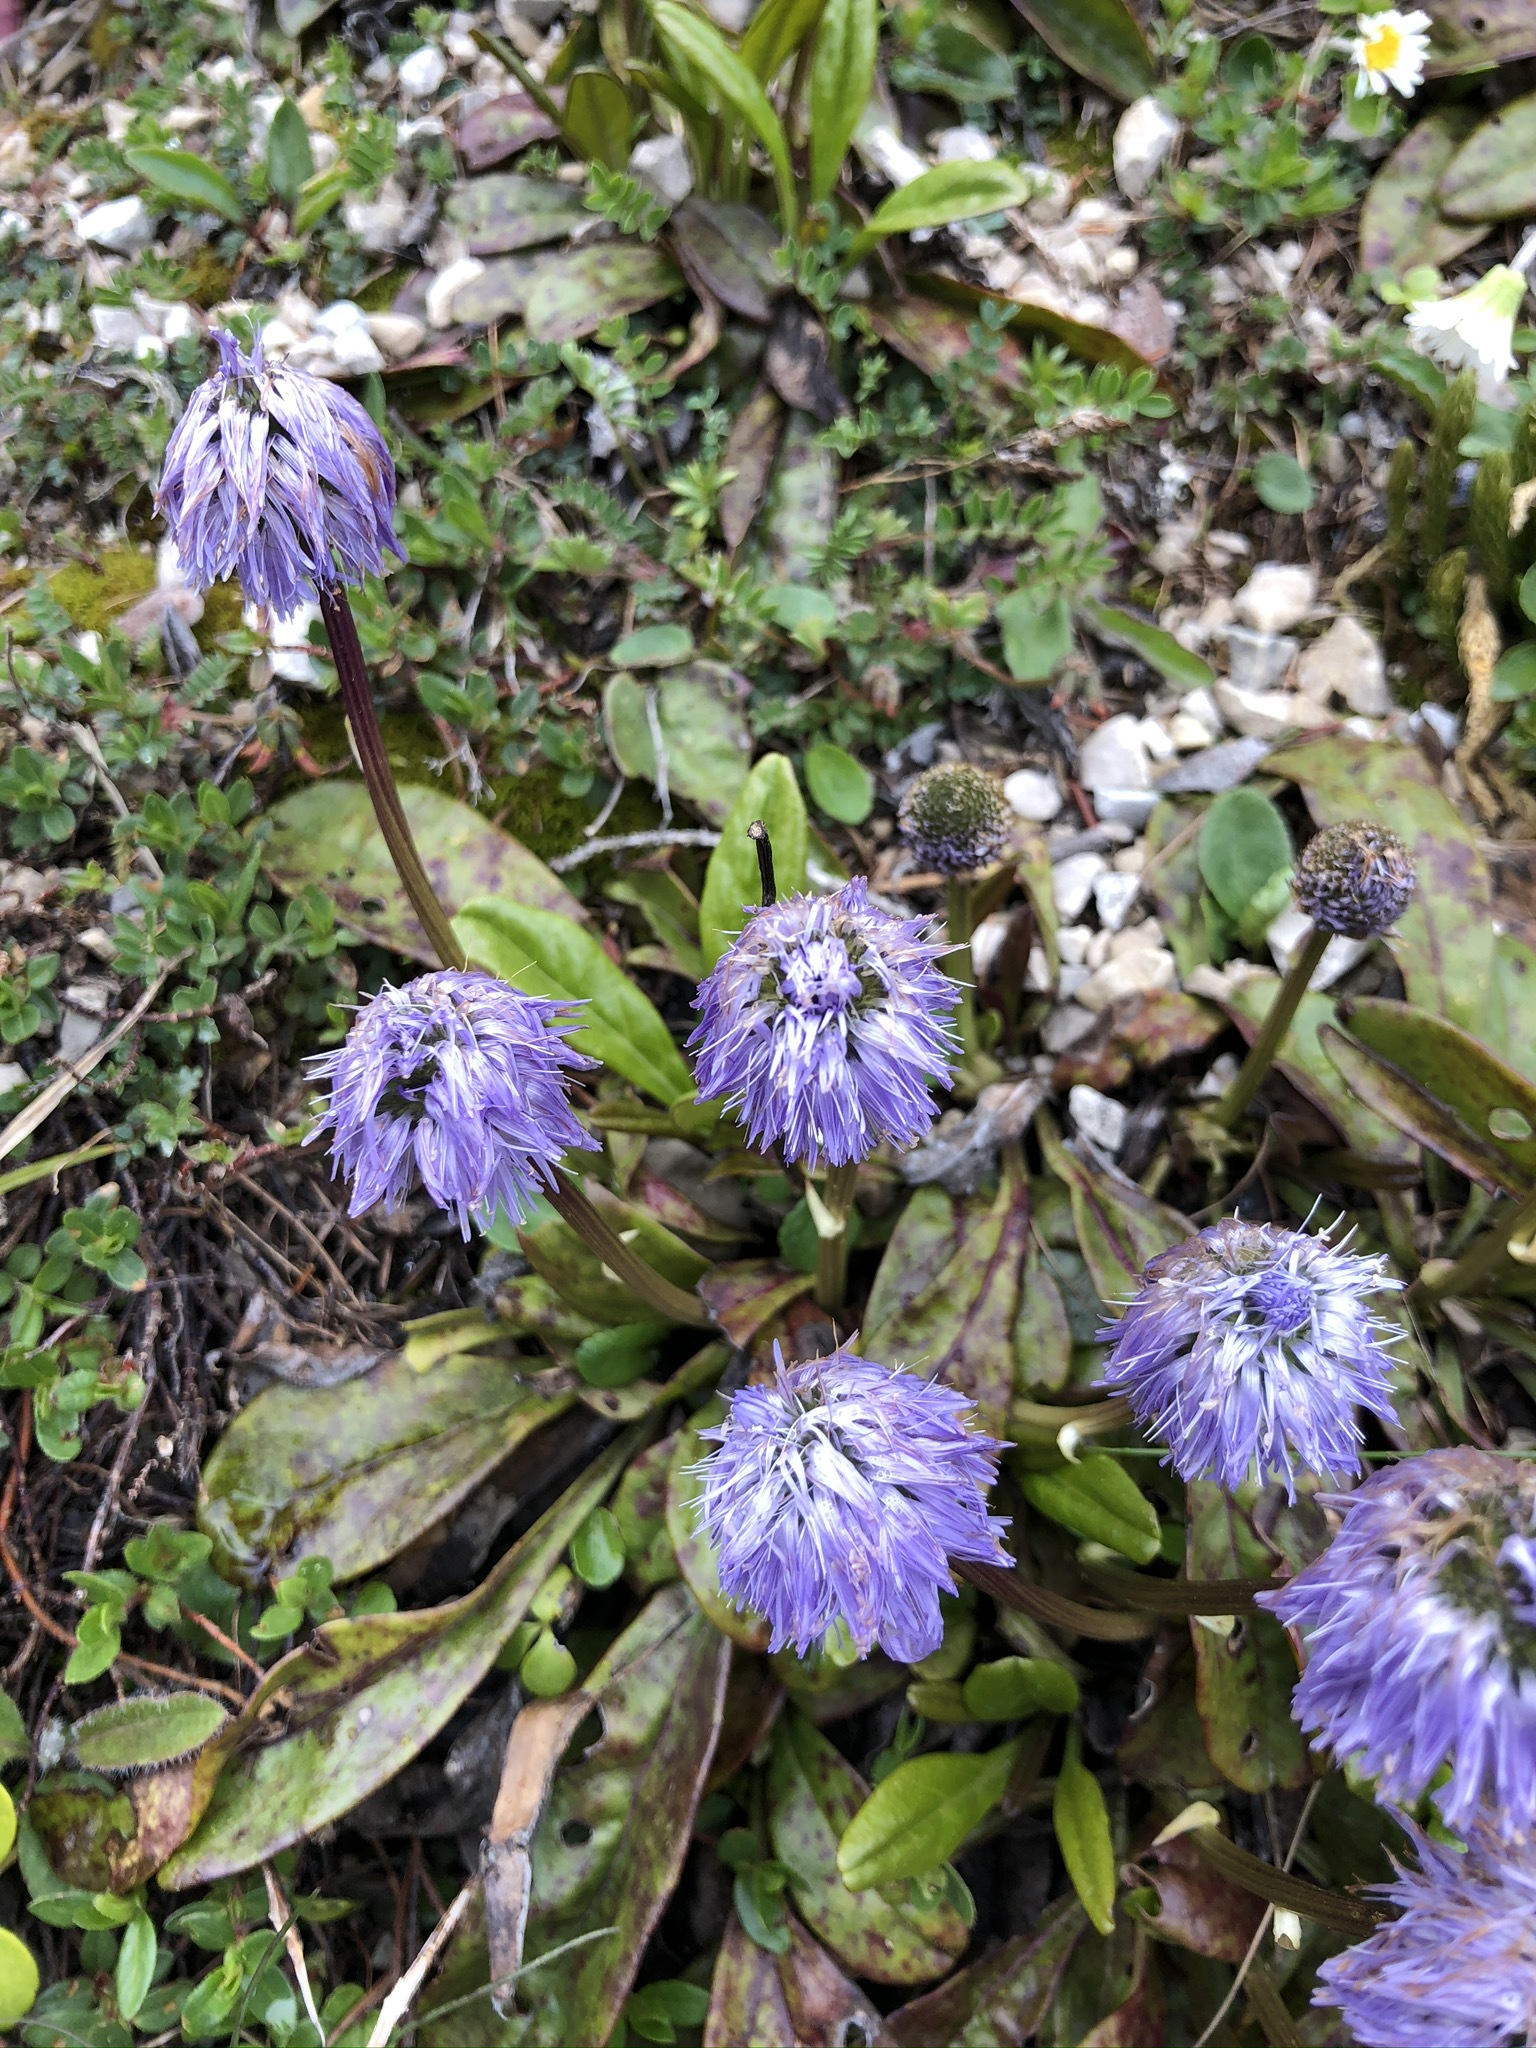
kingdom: Plantae
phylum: Tracheophyta
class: Magnoliopsida
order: Lamiales
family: Plantaginaceae
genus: Globularia
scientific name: Globularia nudicaulis
